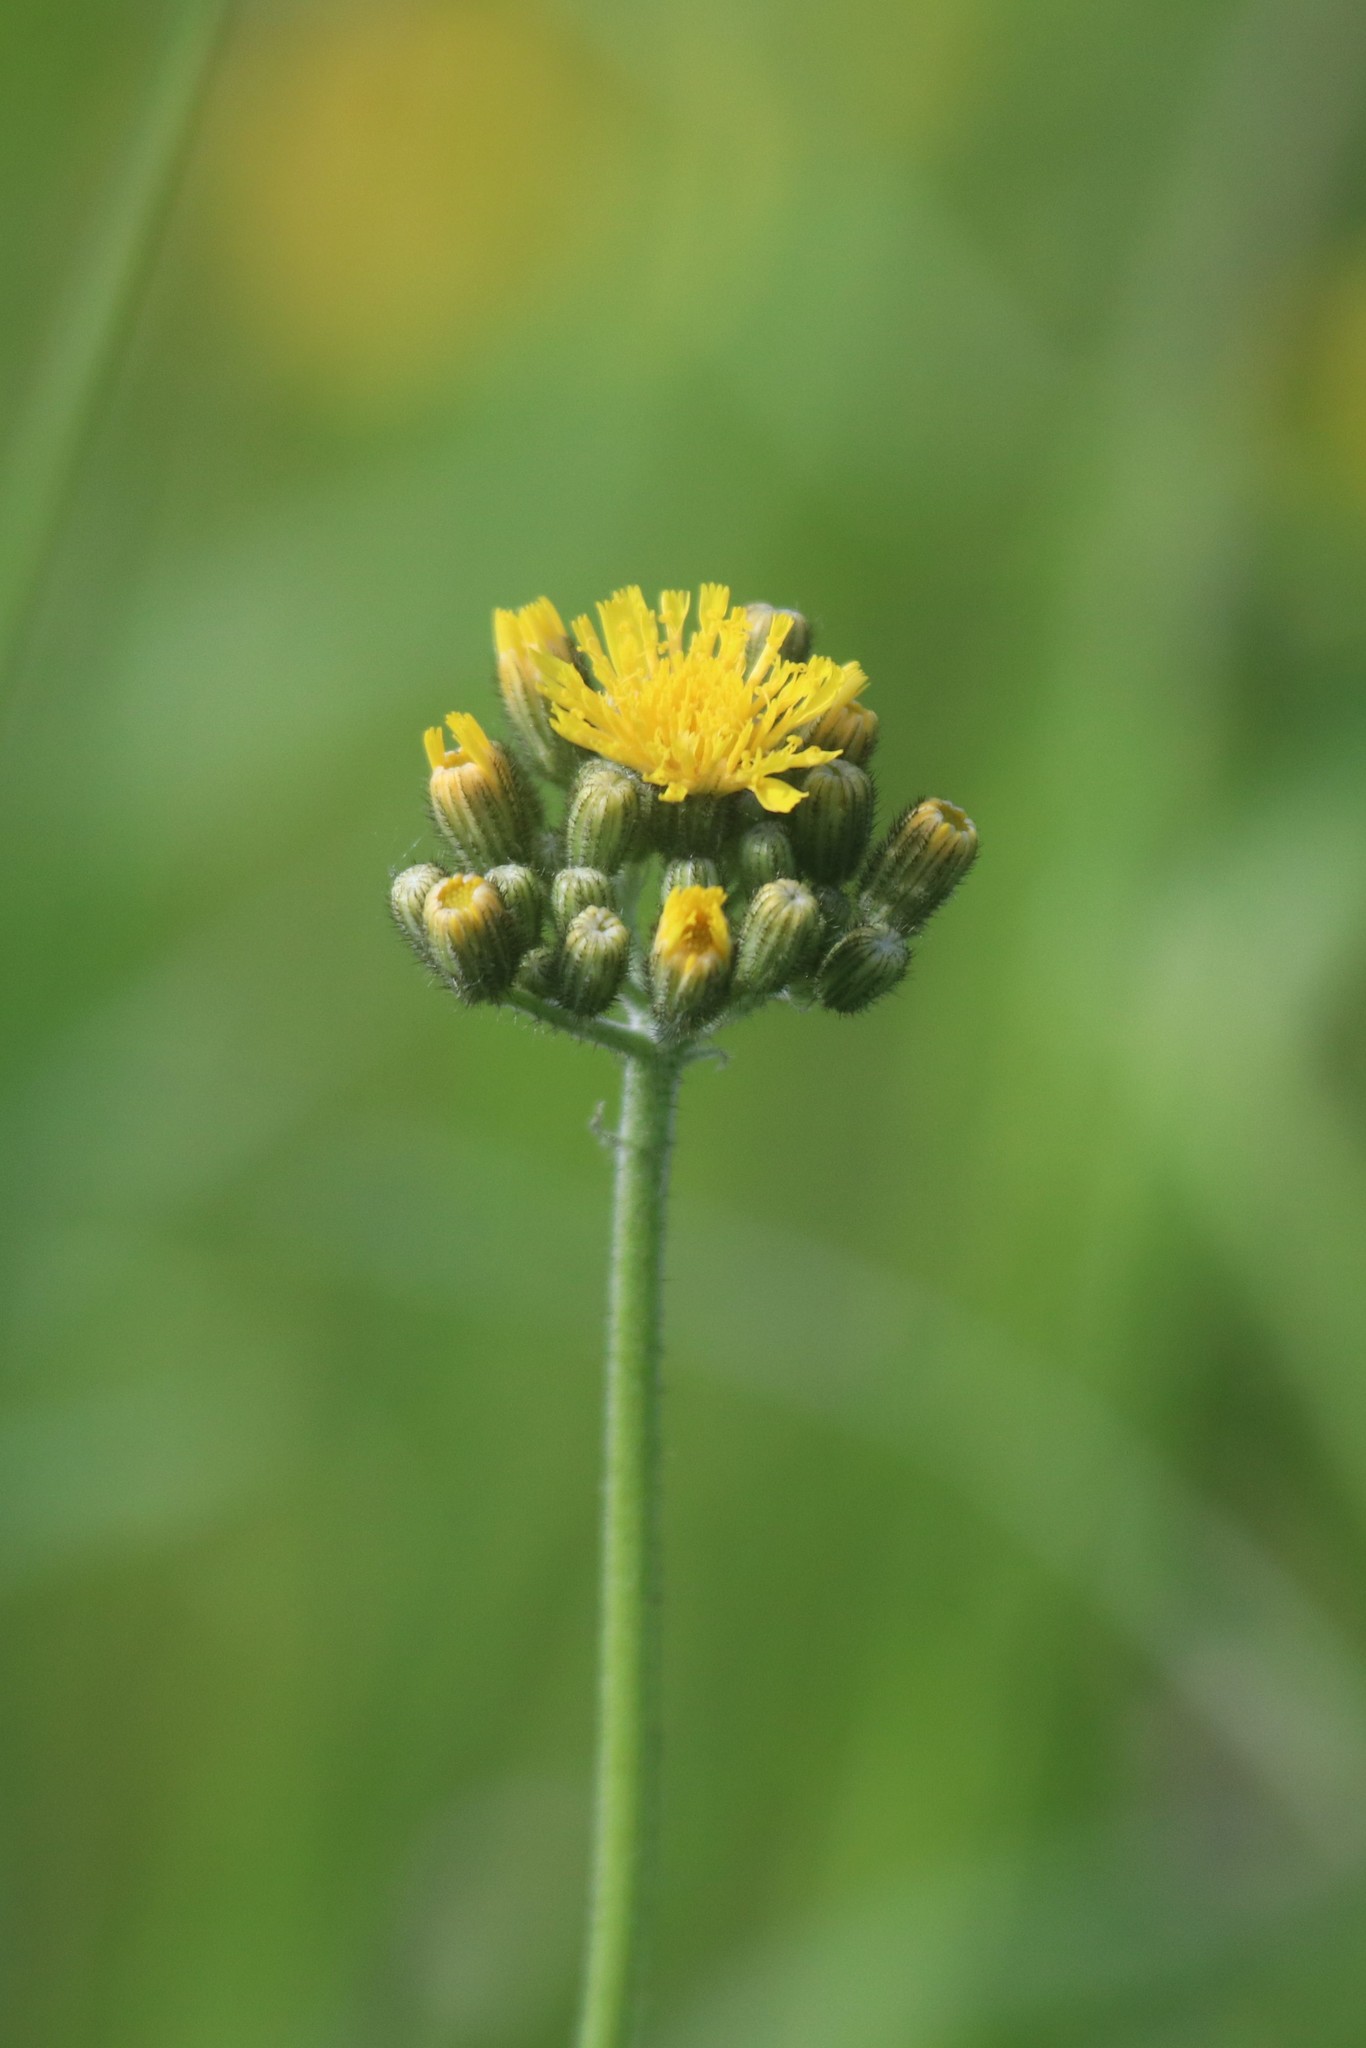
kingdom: Plantae
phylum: Tracheophyta
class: Magnoliopsida
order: Asterales
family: Asteraceae
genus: Pilosella
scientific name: Pilosella
